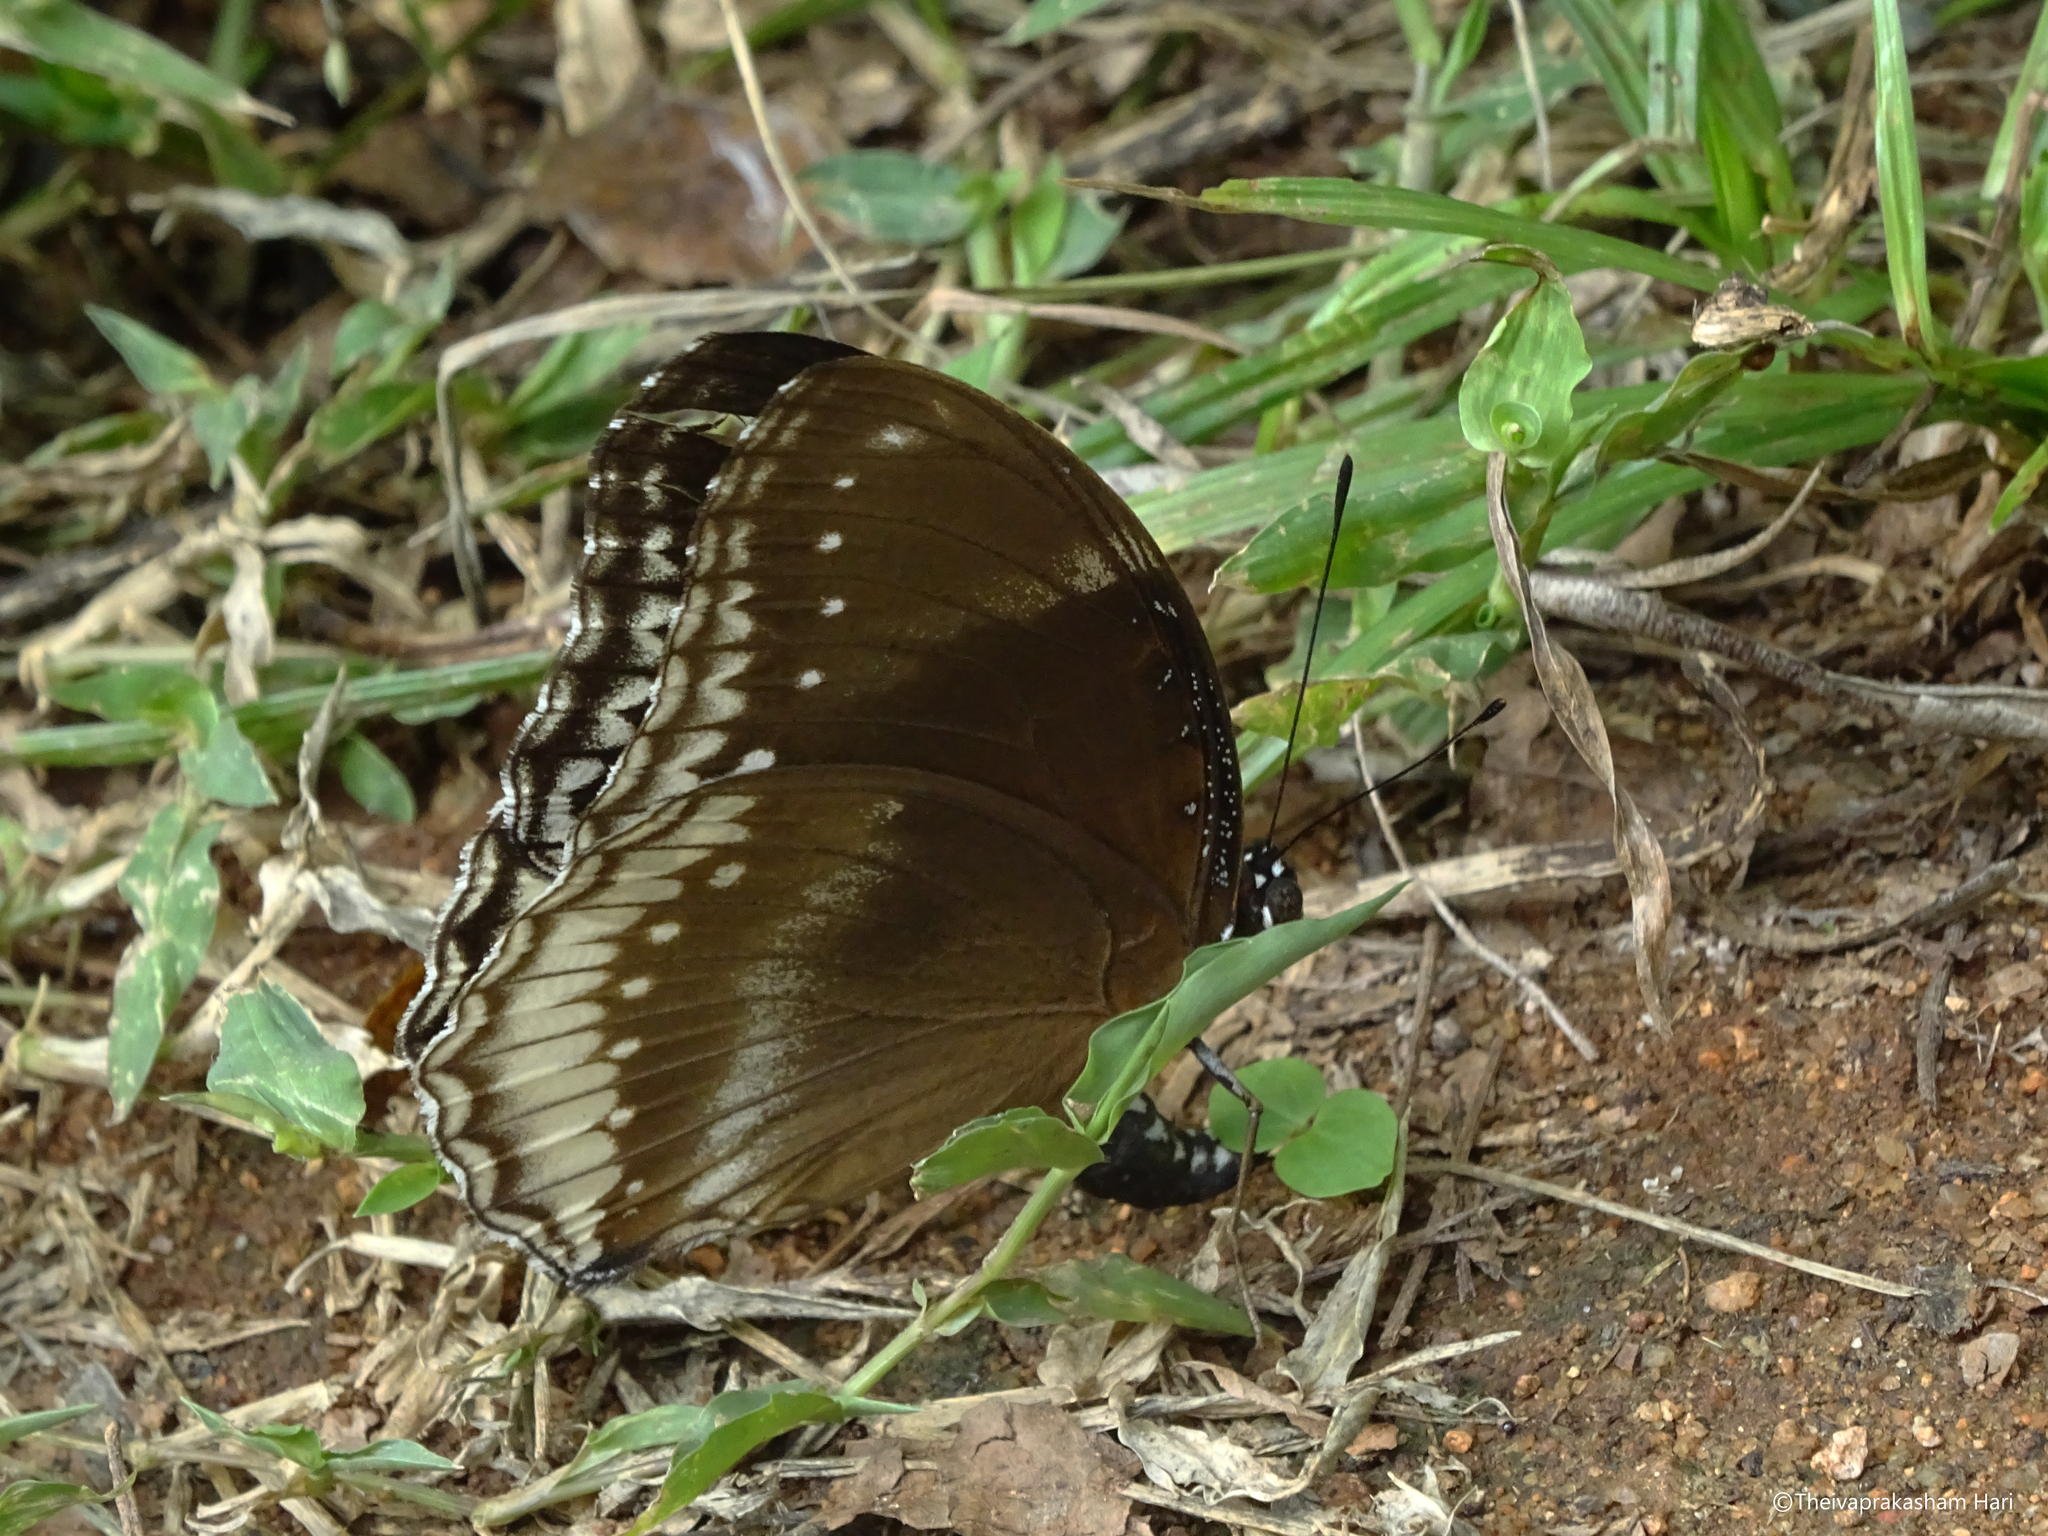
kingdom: Animalia
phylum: Arthropoda
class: Insecta
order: Lepidoptera
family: Nymphalidae
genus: Hypolimnas
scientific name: Hypolimnas bolina
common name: Great eggfly
